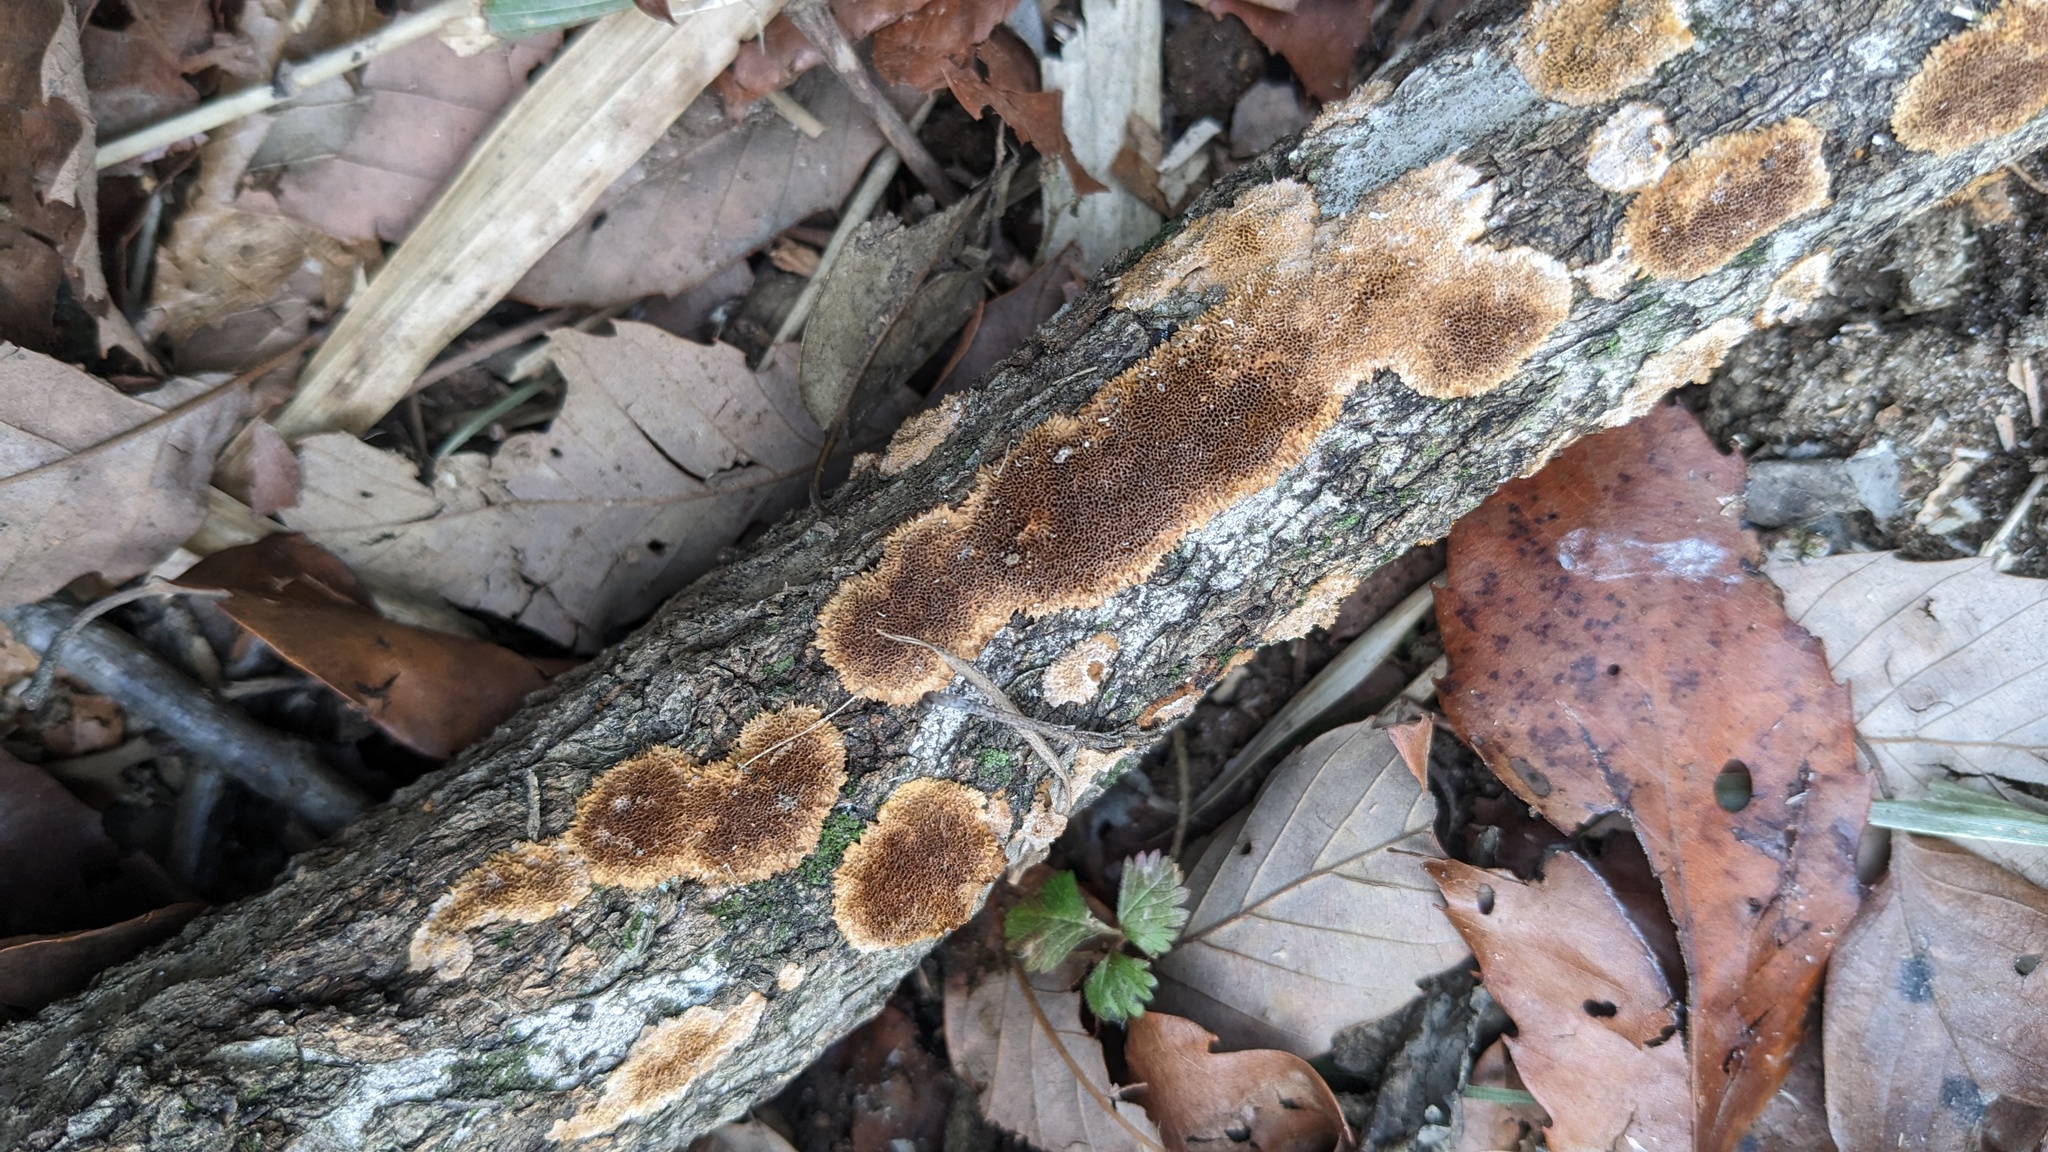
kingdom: Fungi
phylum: Basidiomycota
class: Agaricomycetes
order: Hymenochaetales
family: Hymenochaetaceae
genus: Fuscoporia
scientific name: Fuscoporia setifera
